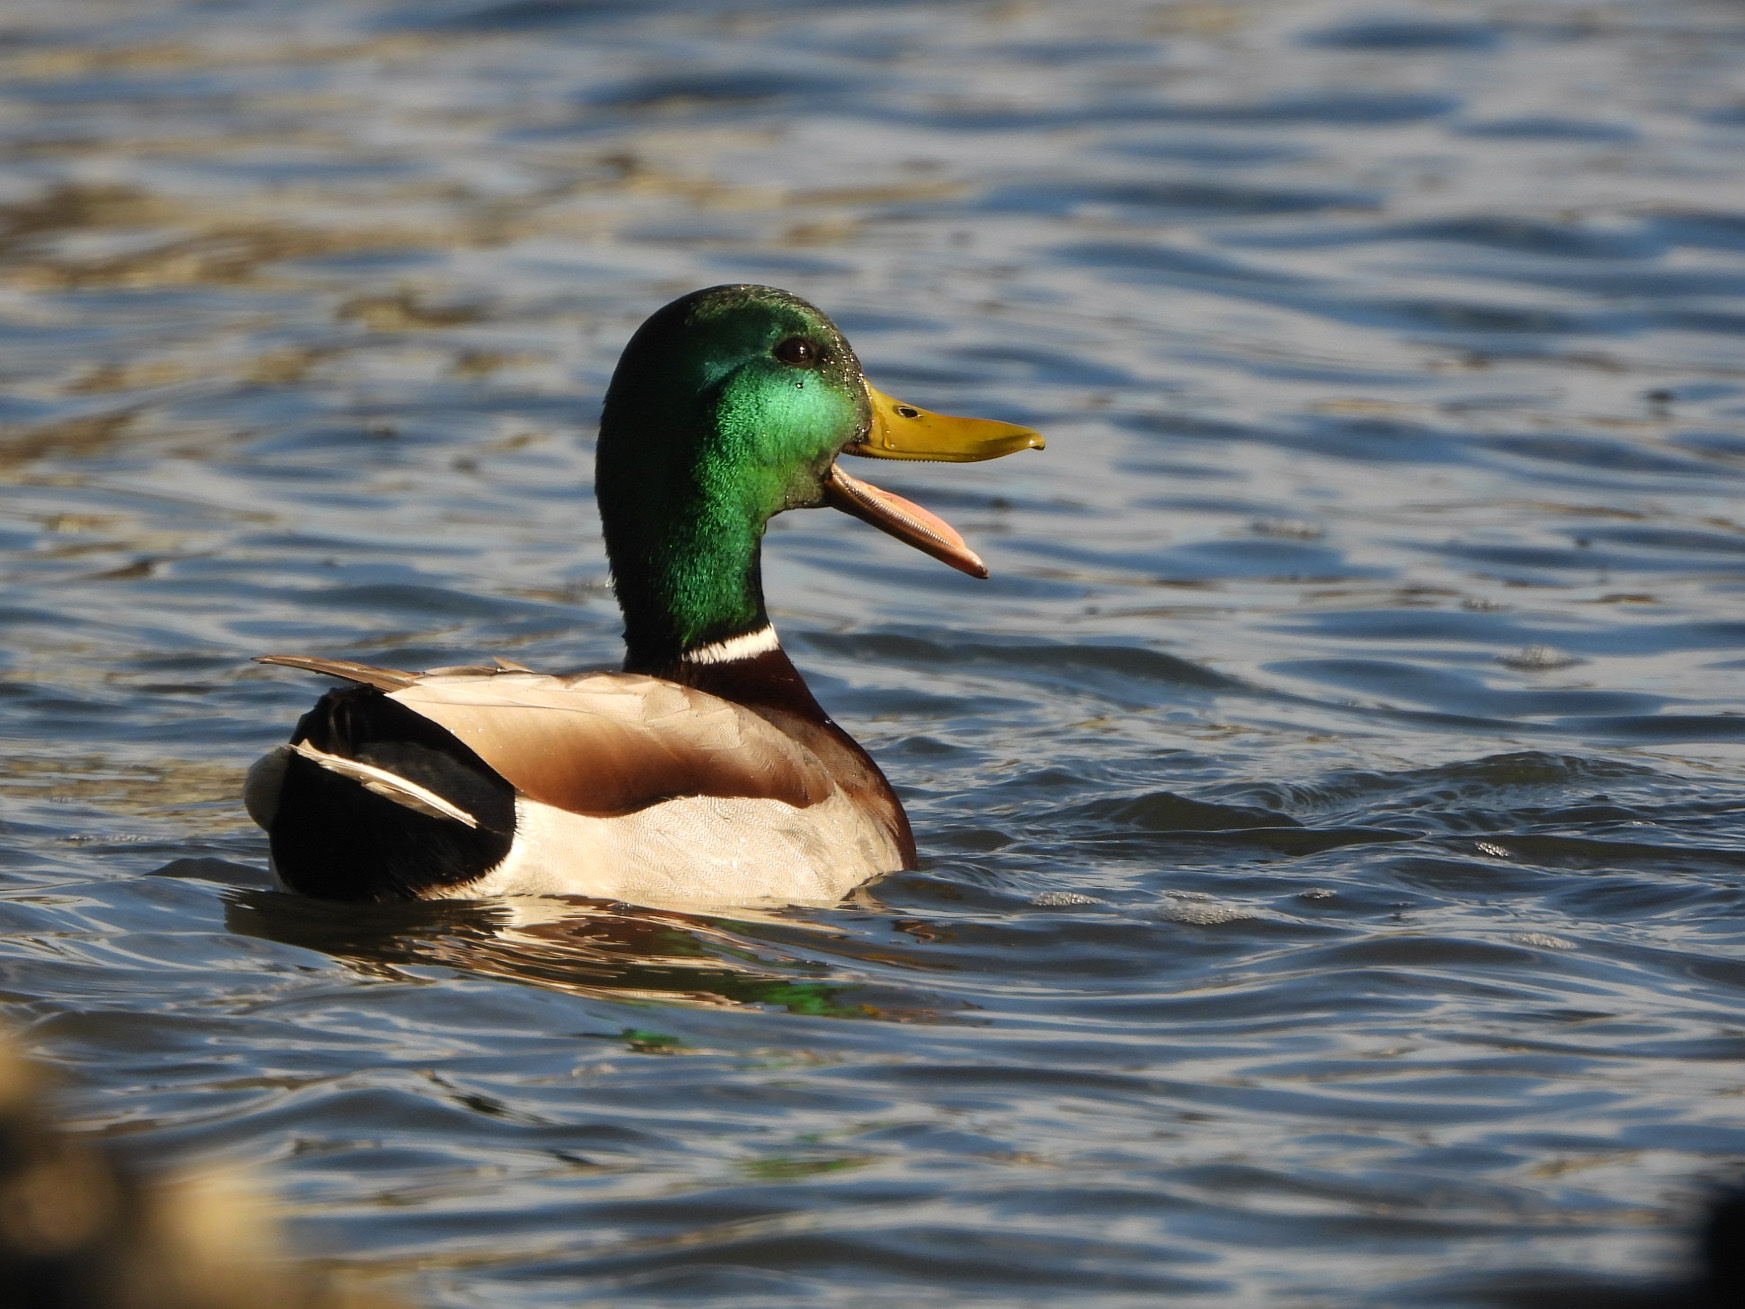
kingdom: Animalia
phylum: Chordata
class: Aves
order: Anseriformes
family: Anatidae
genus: Anas
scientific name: Anas platyrhynchos
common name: Mallard
